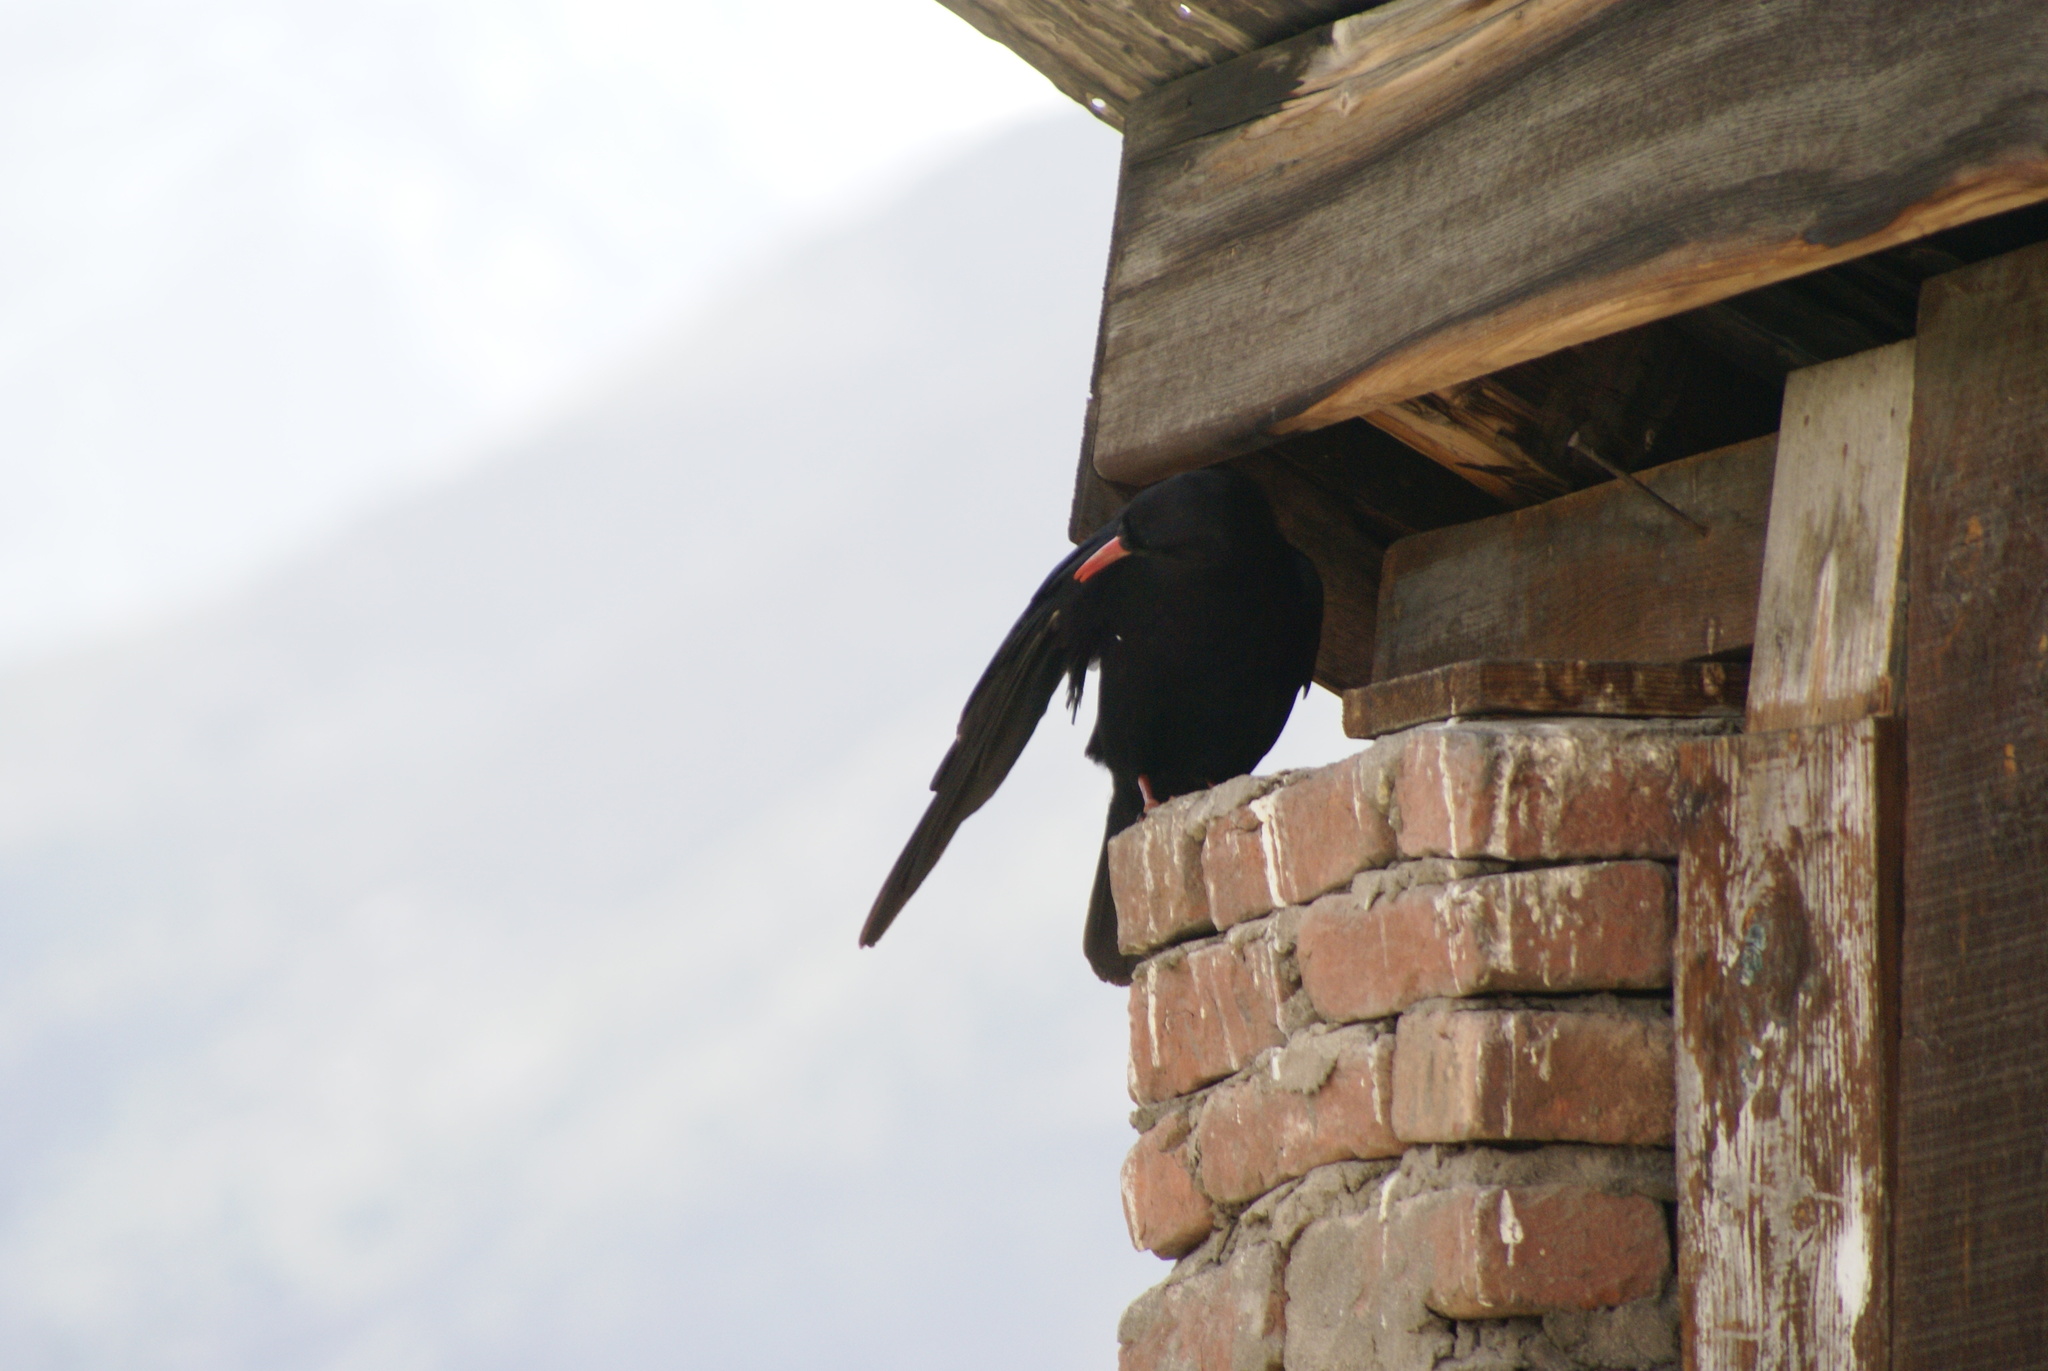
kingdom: Animalia
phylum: Chordata
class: Aves
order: Passeriformes
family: Corvidae
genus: Pyrrhocorax
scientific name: Pyrrhocorax pyrrhocorax
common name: Red-billed chough
